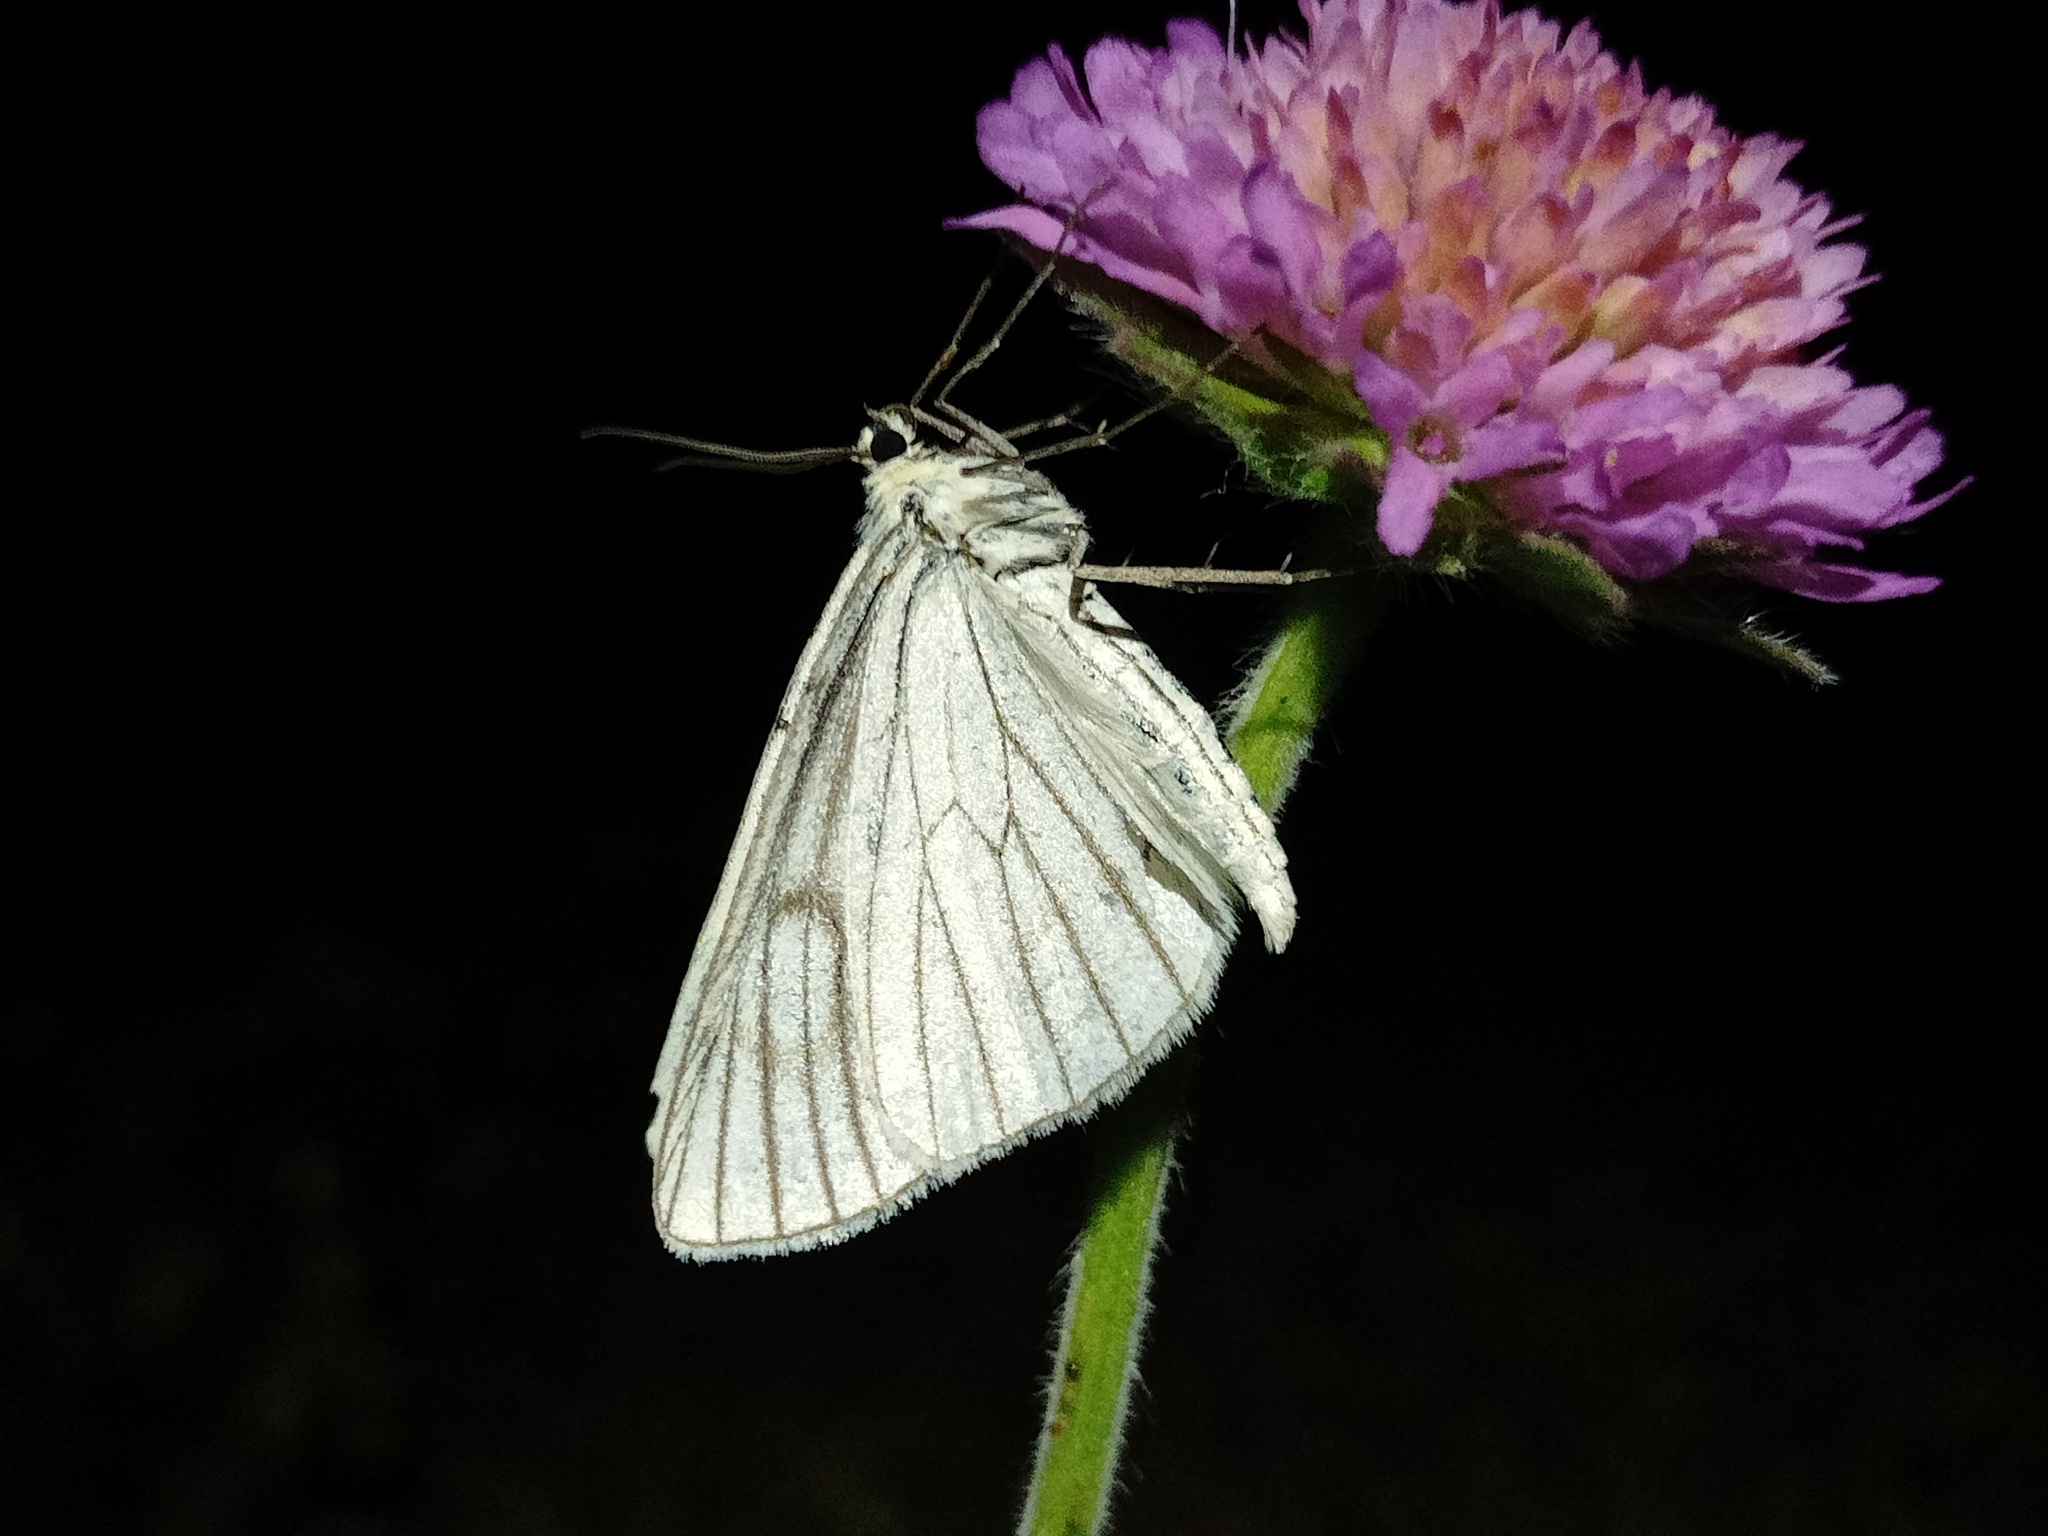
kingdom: Animalia
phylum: Arthropoda
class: Insecta
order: Lepidoptera
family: Geometridae
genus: Siona
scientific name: Siona lineata
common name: Black-veined moth
